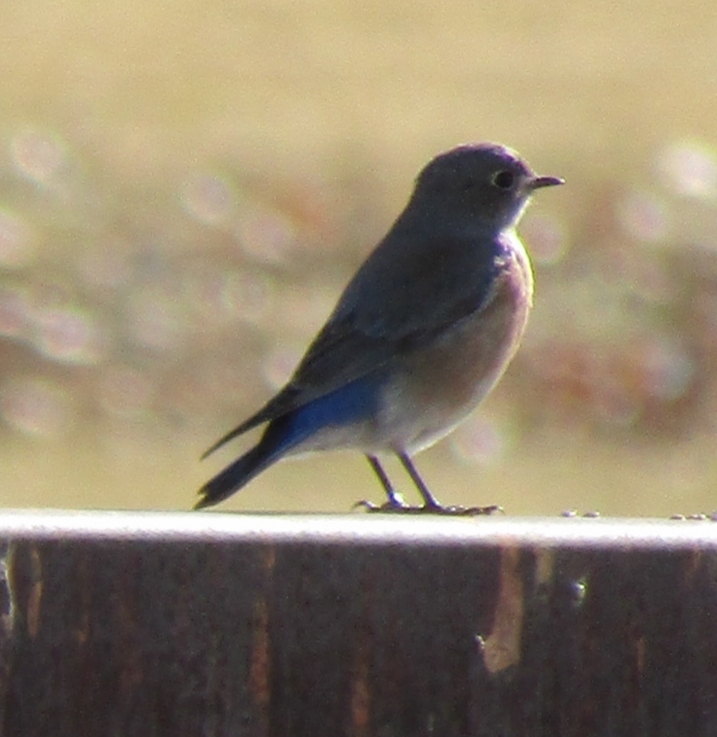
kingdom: Animalia
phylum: Chordata
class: Aves
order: Passeriformes
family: Turdidae
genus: Sialia
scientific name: Sialia mexicana
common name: Western bluebird
